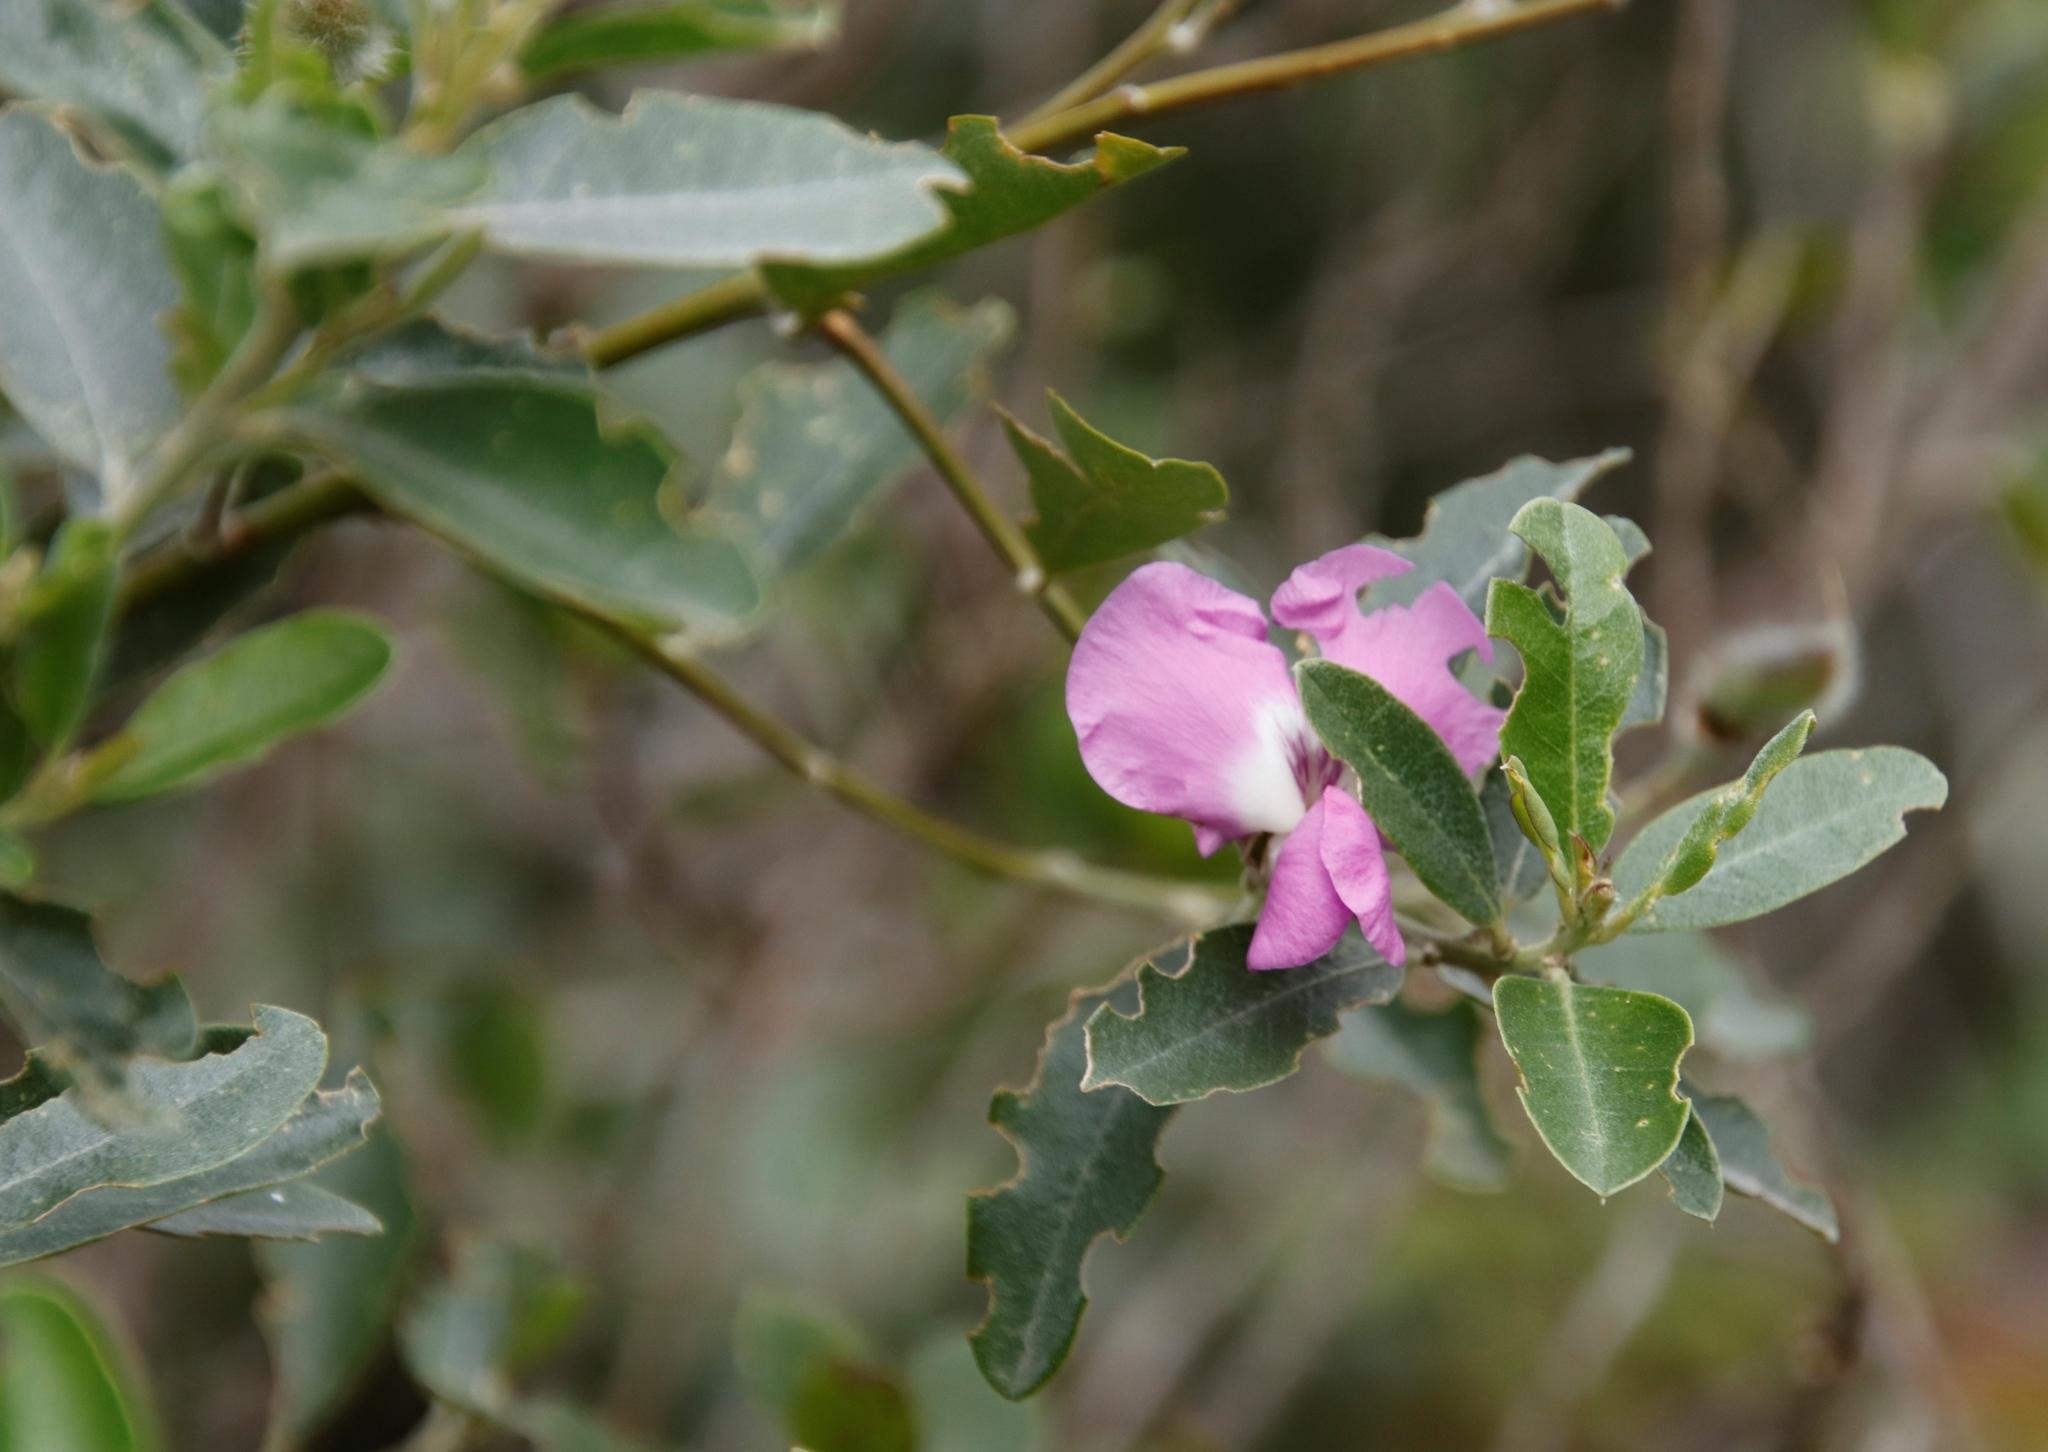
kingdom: Plantae
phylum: Tracheophyta
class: Magnoliopsida
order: Fabales
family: Fabaceae
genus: Podalyria
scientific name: Podalyria calyptrata
